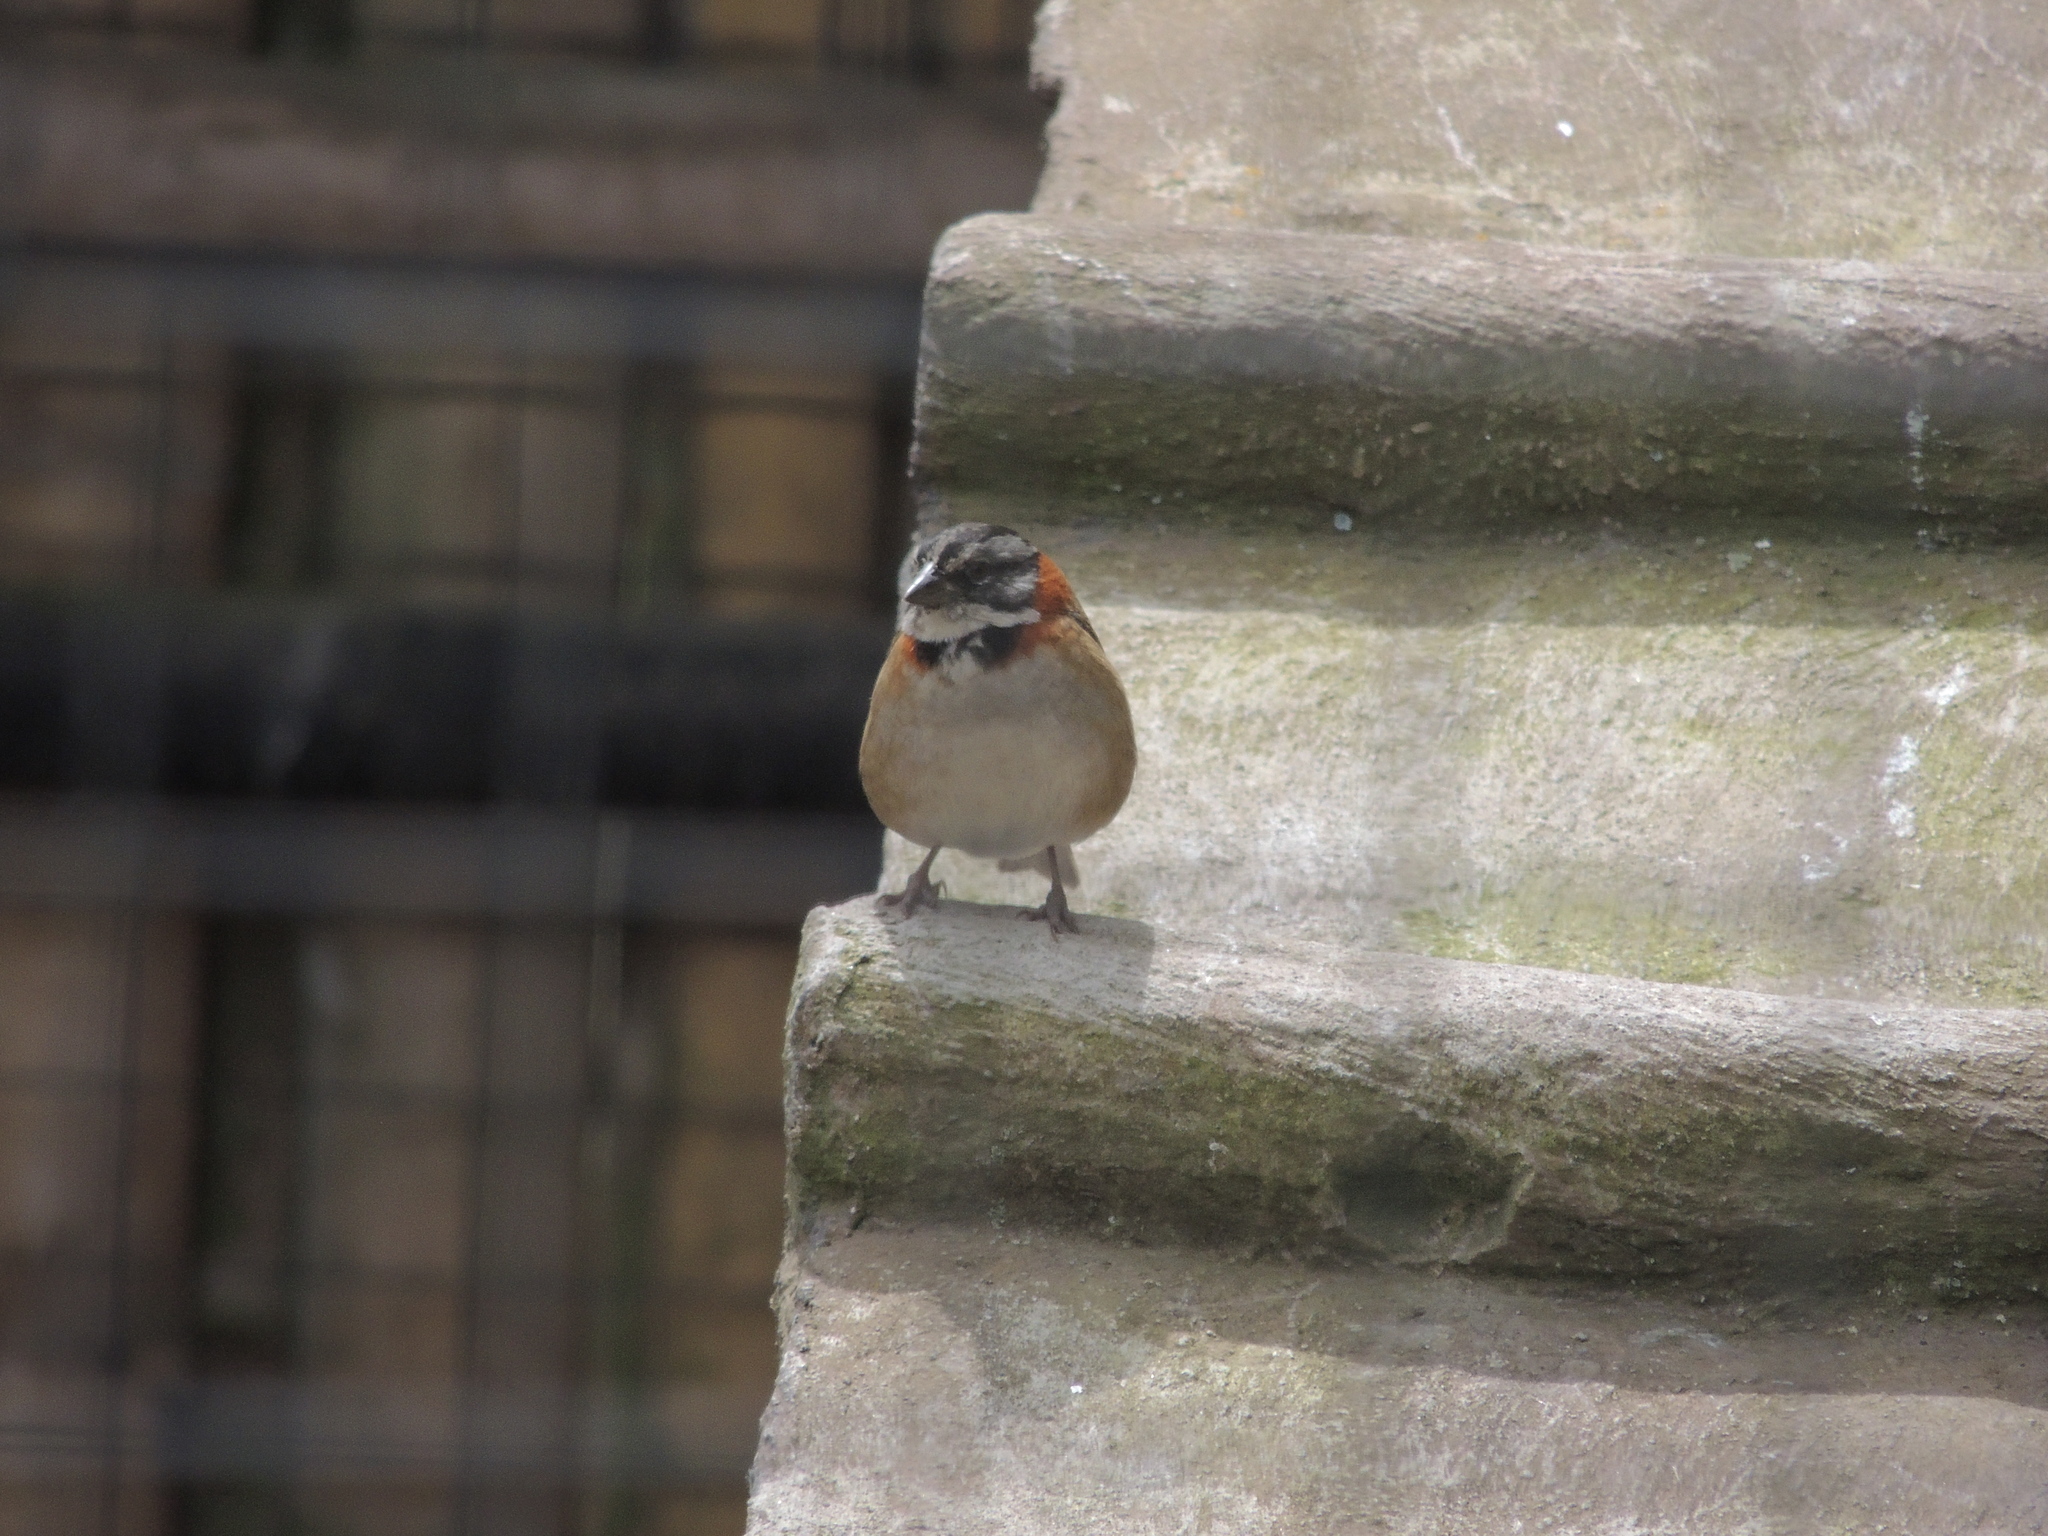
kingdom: Animalia
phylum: Chordata
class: Aves
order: Passeriformes
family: Passerellidae
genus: Zonotrichia
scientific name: Zonotrichia capensis
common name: Rufous-collared sparrow
